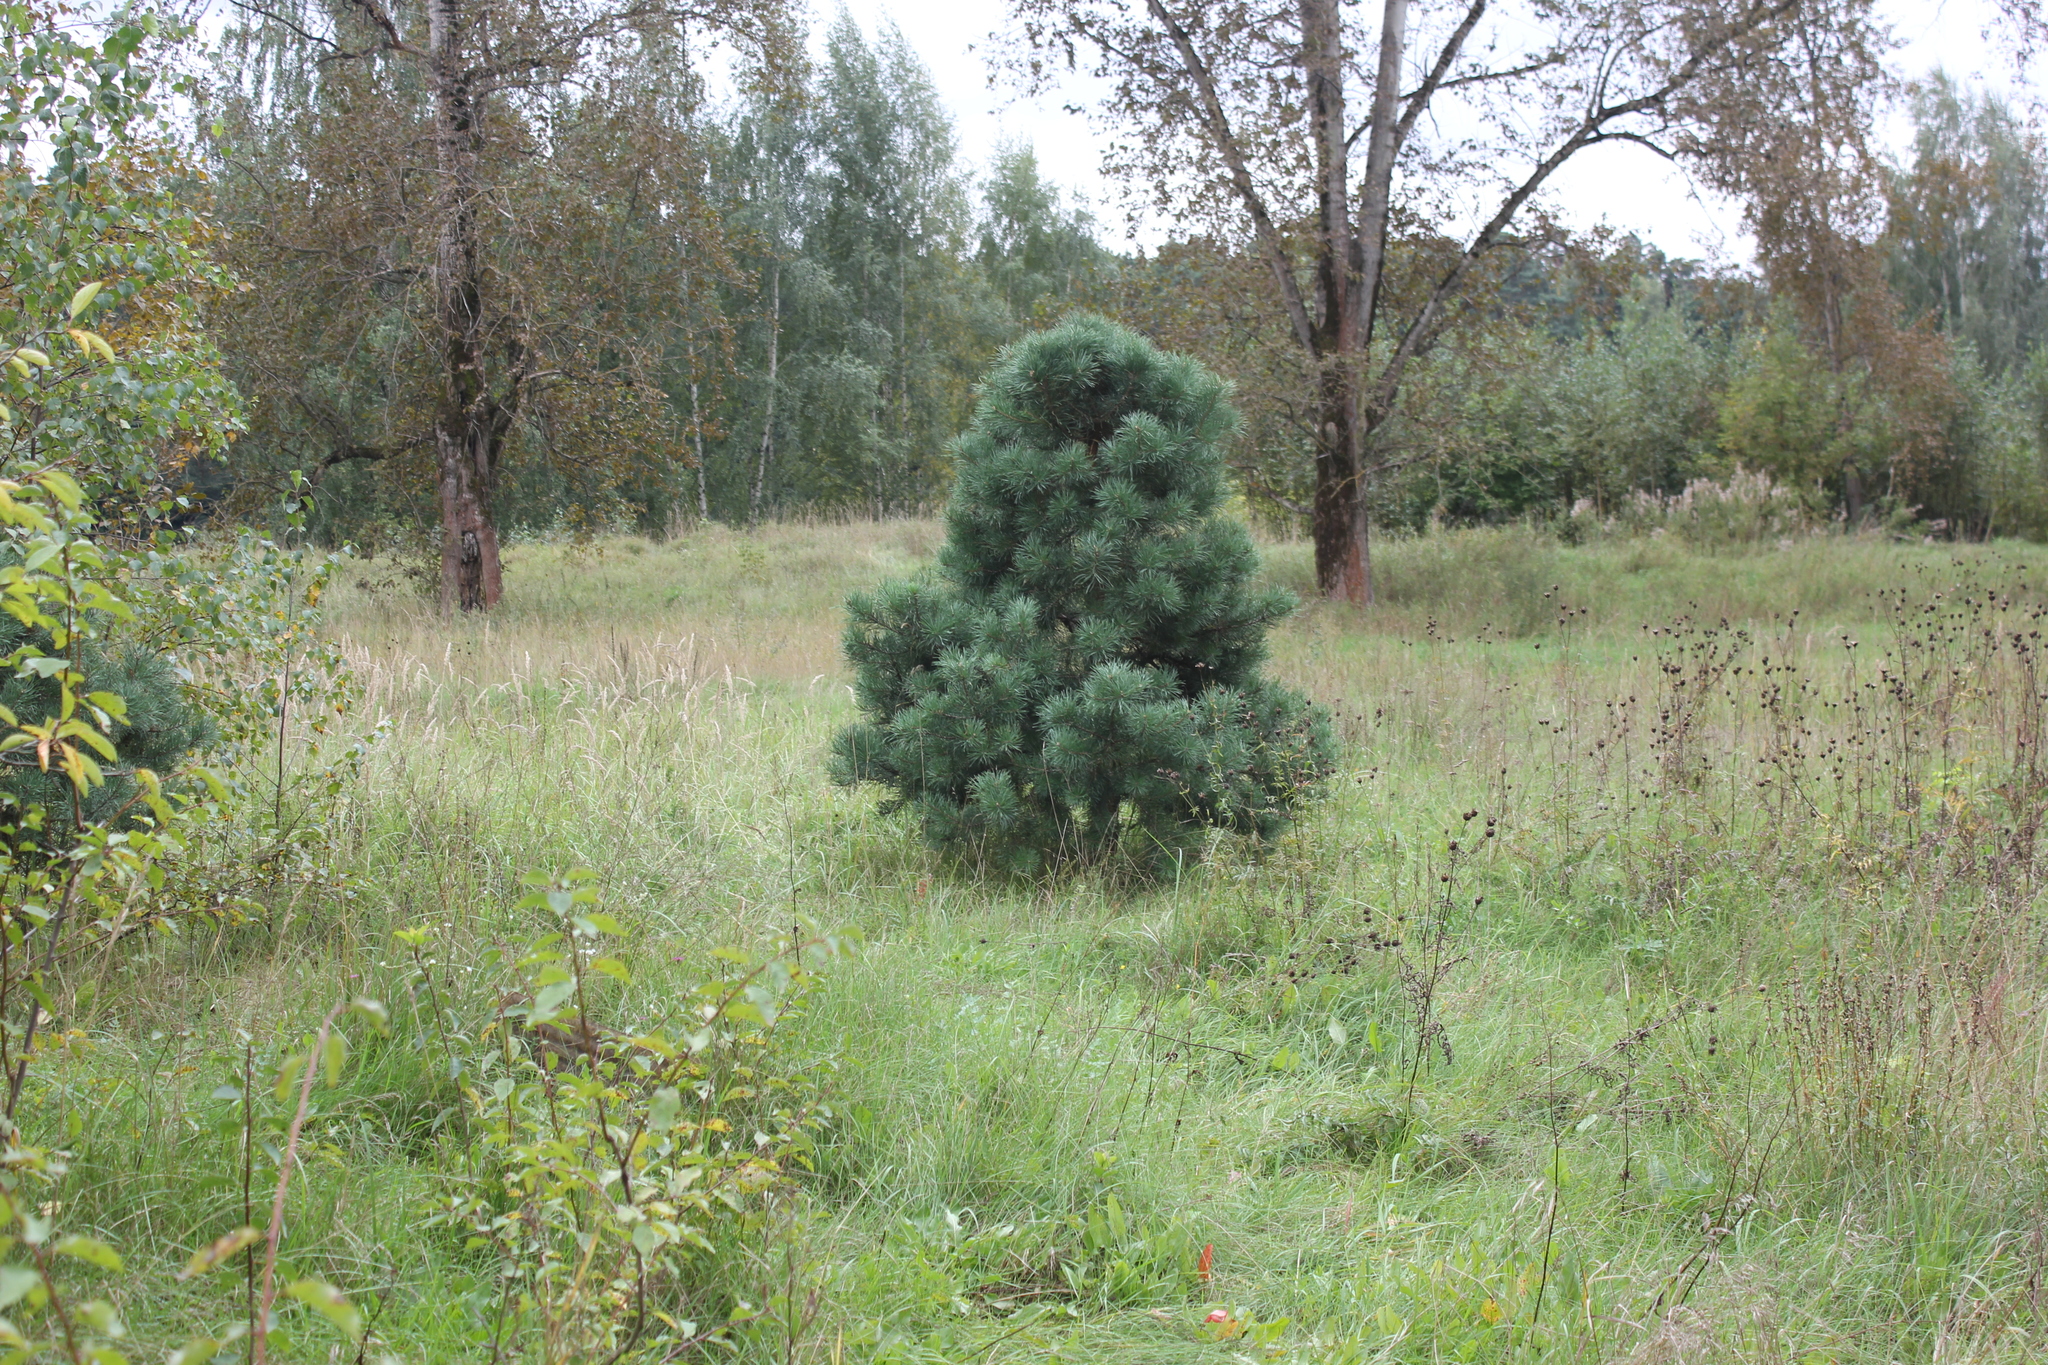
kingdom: Plantae
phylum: Tracheophyta
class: Pinopsida
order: Pinales
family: Pinaceae
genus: Pinus
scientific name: Pinus sylvestris
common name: Scots pine
